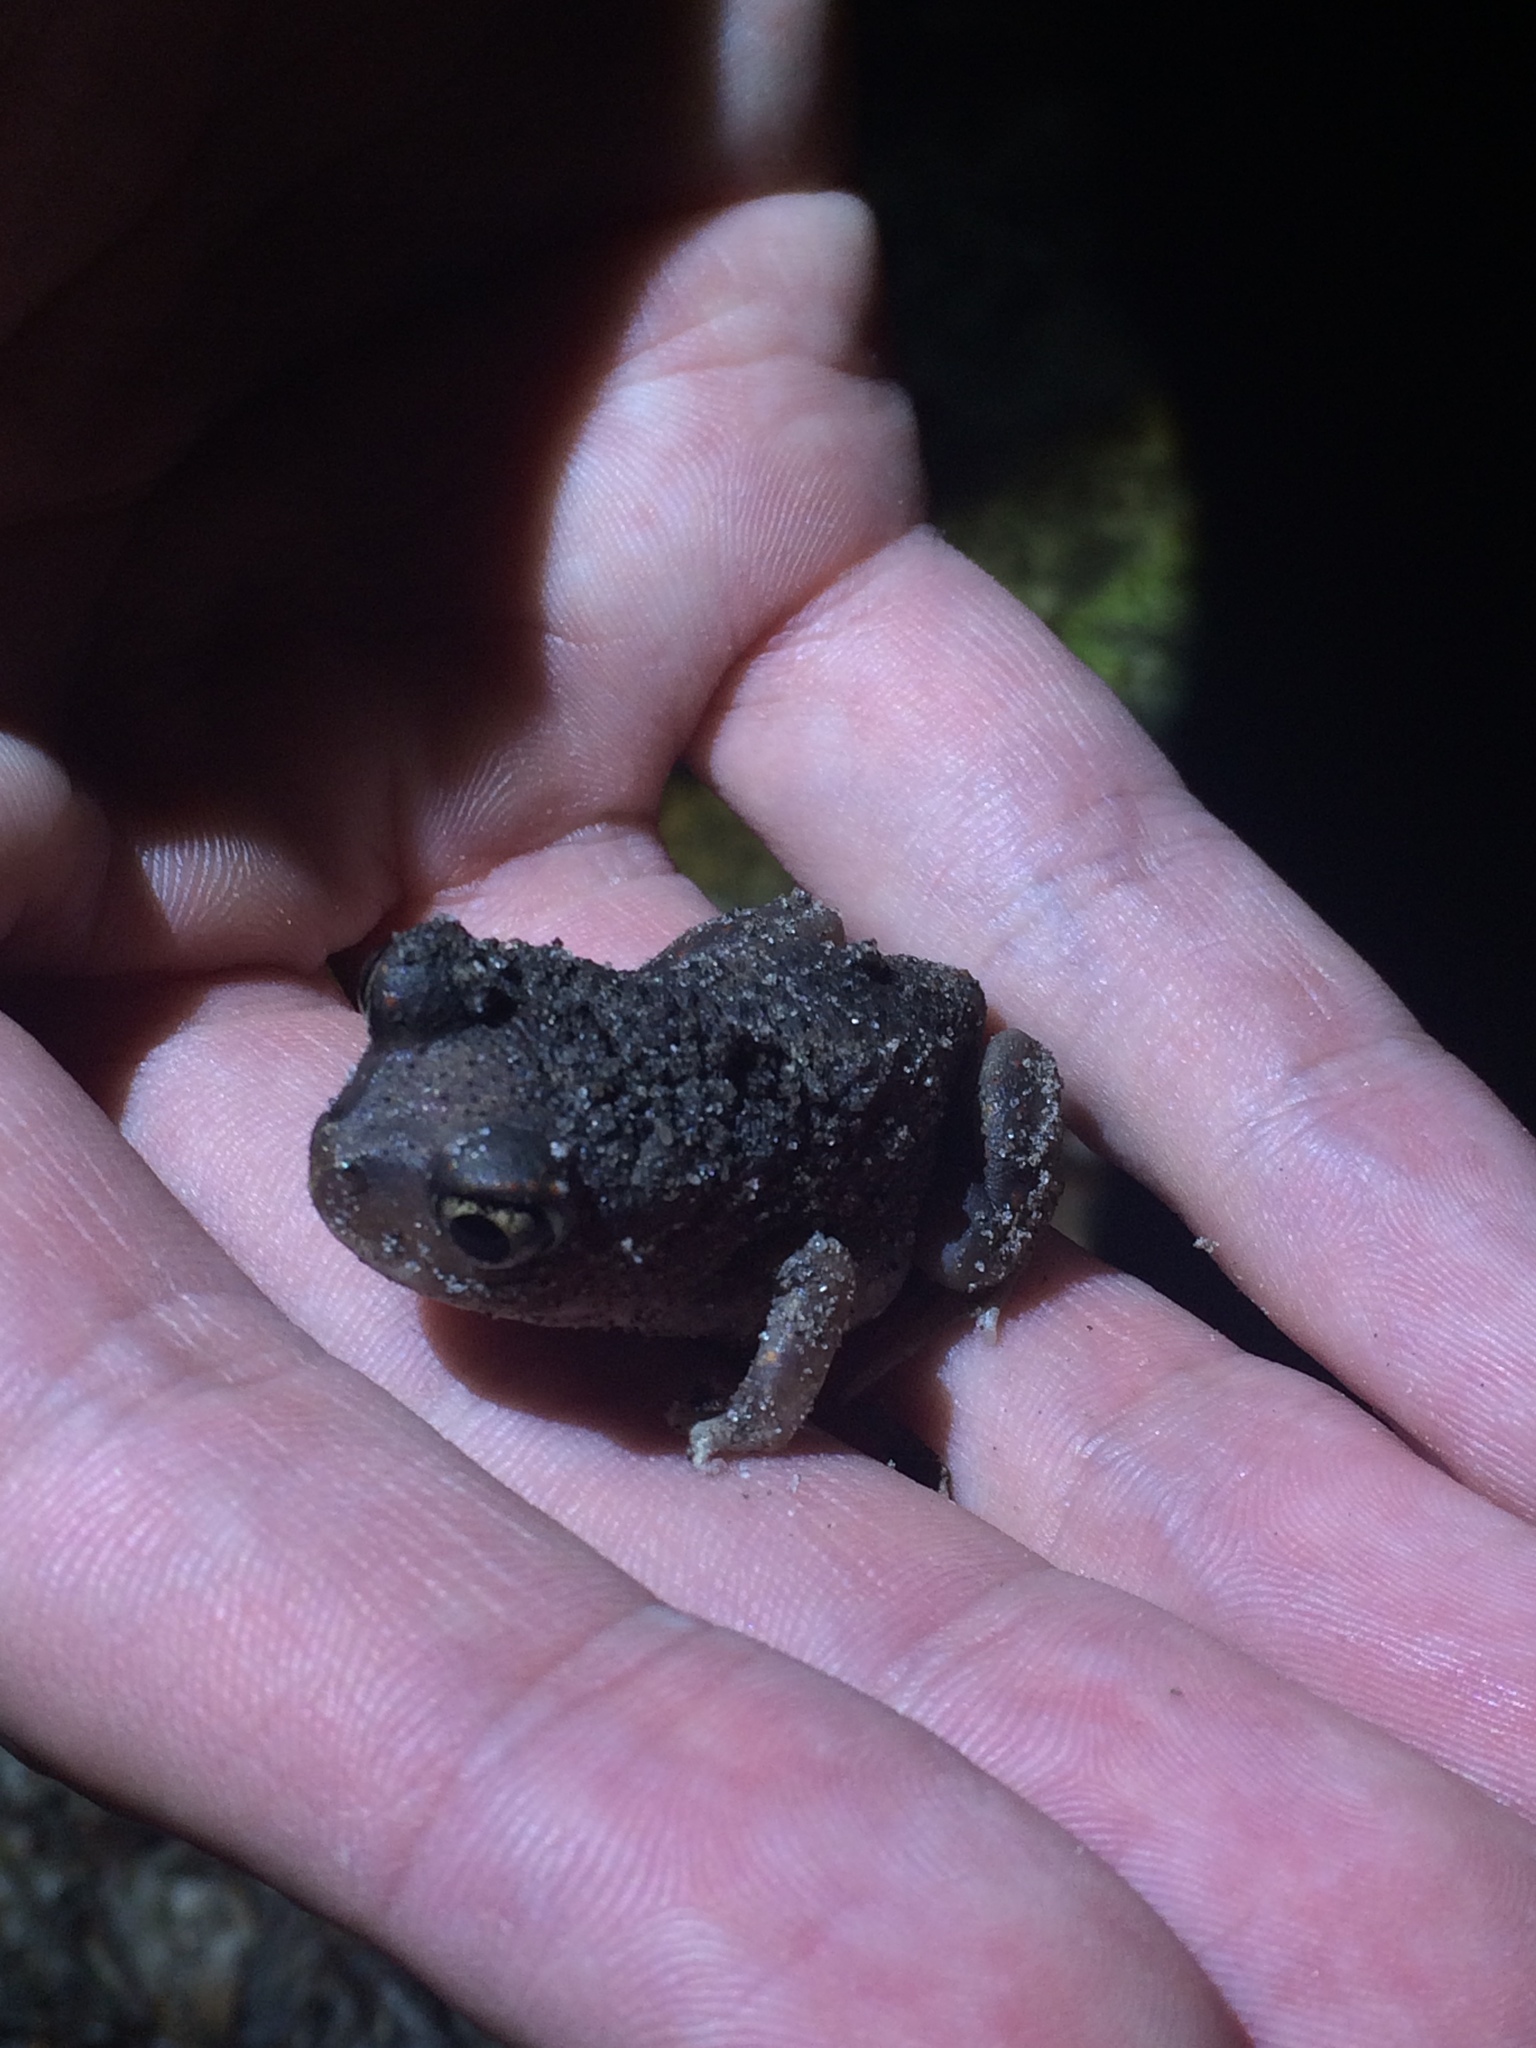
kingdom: Animalia
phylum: Chordata
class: Amphibia
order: Anura
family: Scaphiopodidae
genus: Scaphiopus
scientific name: Scaphiopus holbrookii
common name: Eastern spadefoot toad
